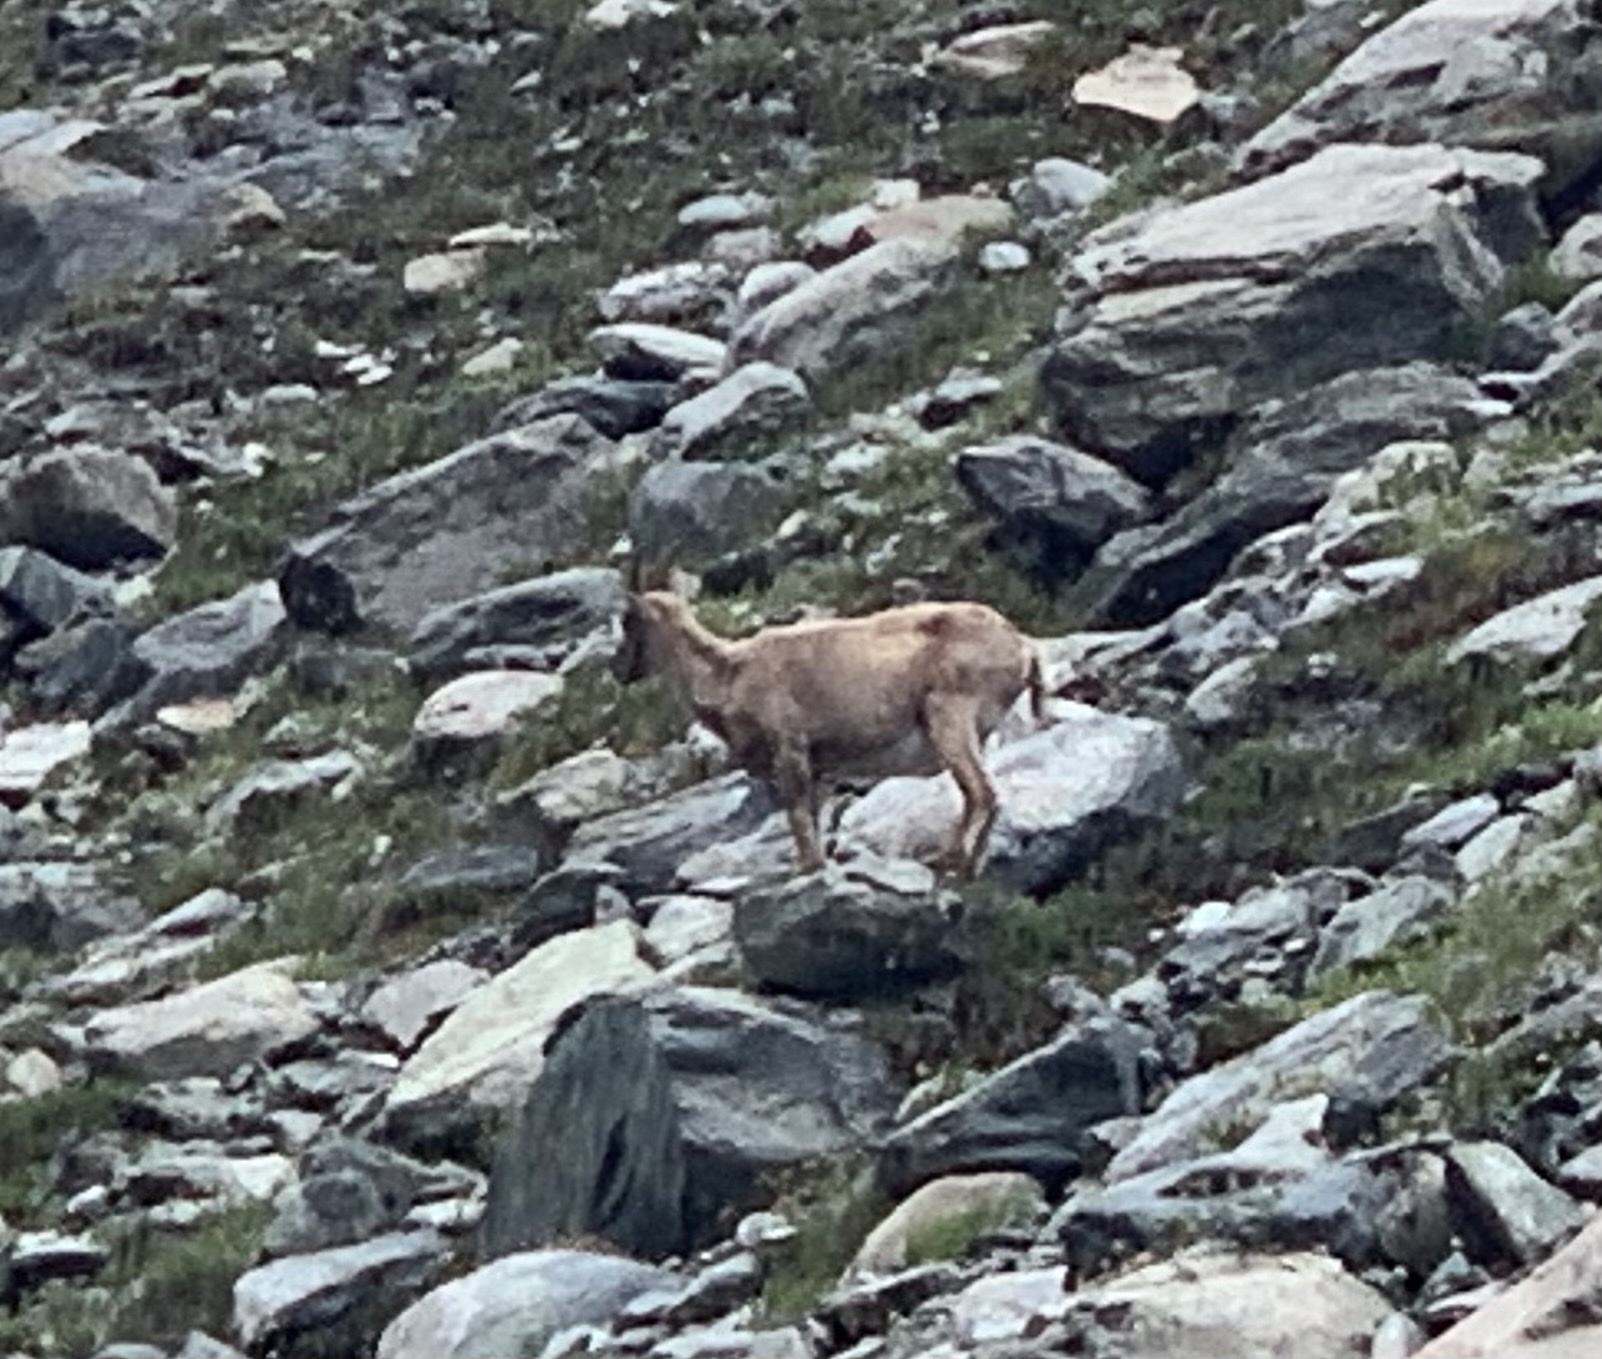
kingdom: Animalia
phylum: Chordata
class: Mammalia
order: Artiodactyla
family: Bovidae
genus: Capra
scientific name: Capra ibex
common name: Alpine ibex
